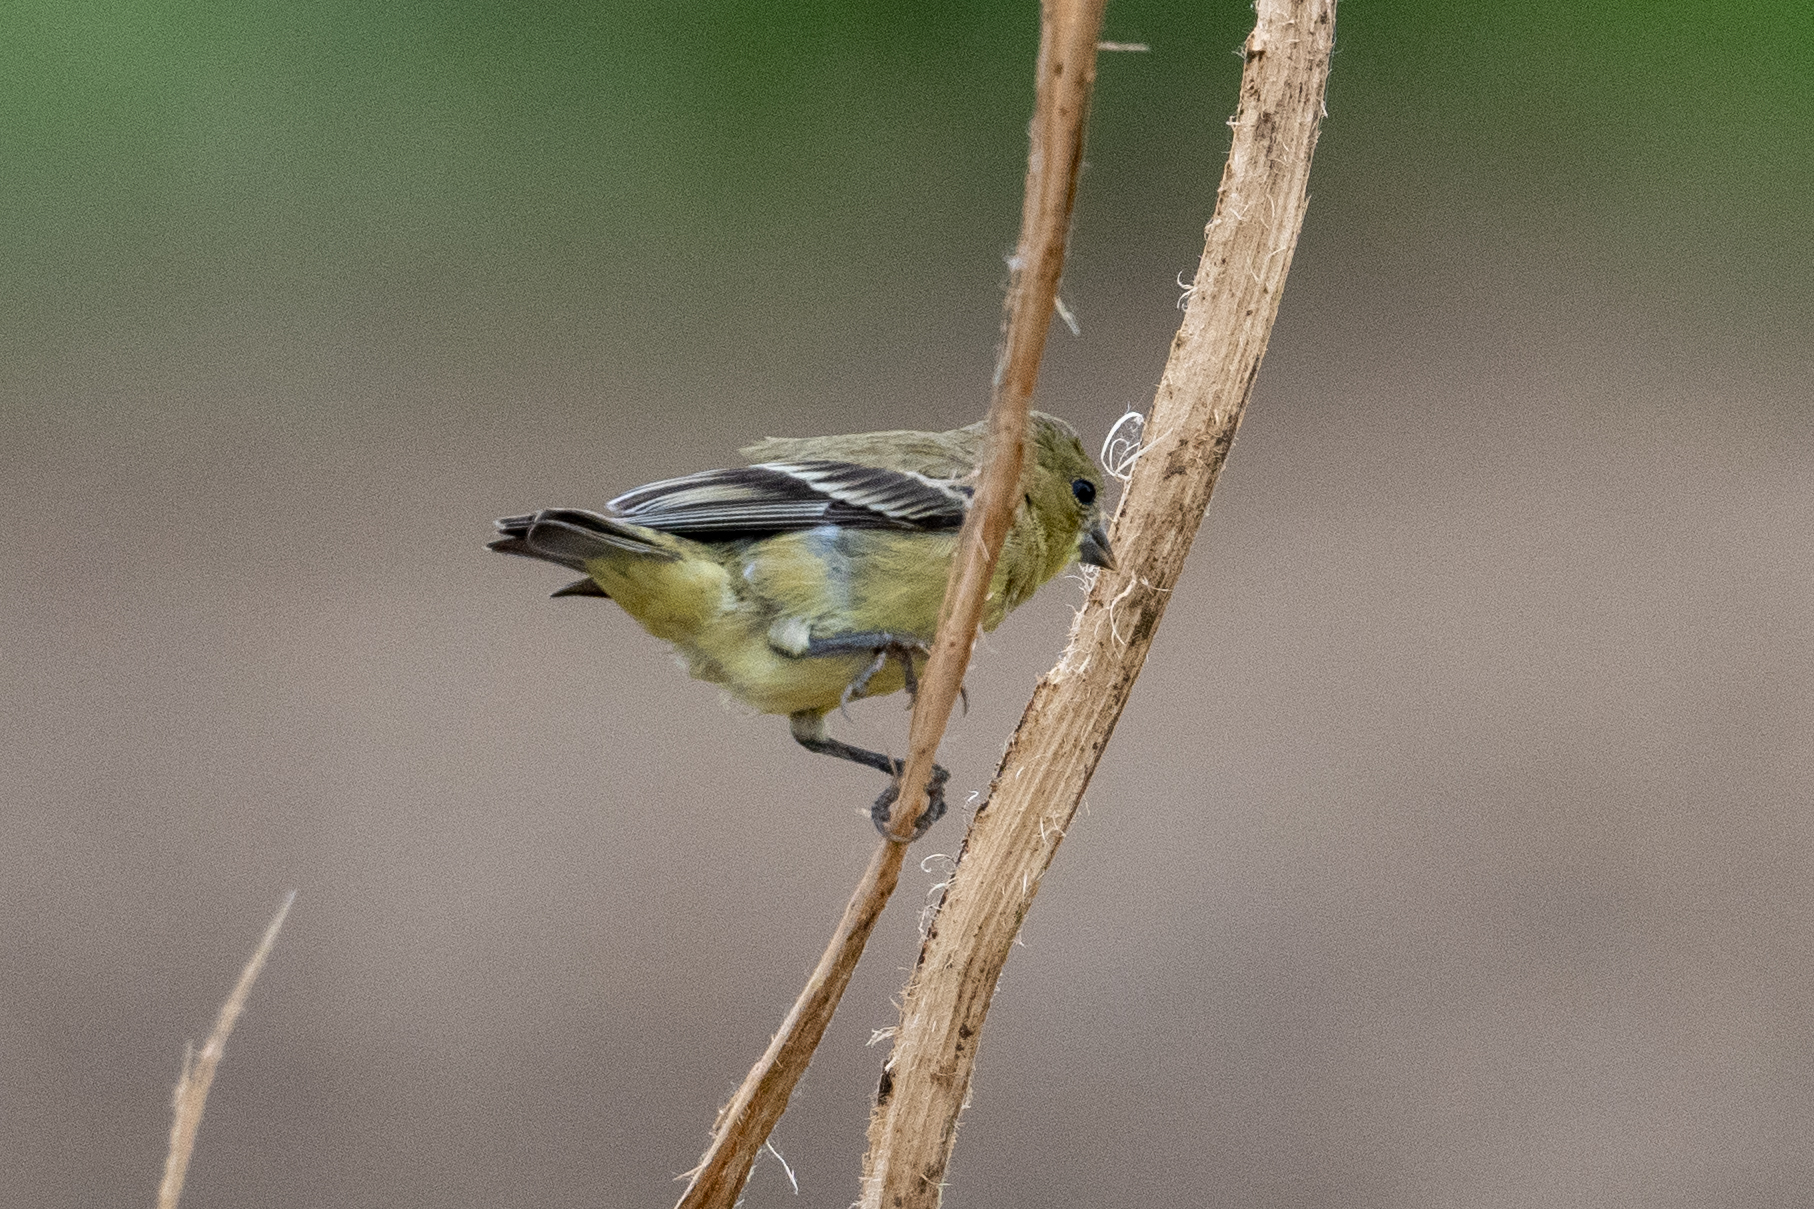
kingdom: Animalia
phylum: Chordata
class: Aves
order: Passeriformes
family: Fringillidae
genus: Spinus
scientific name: Spinus psaltria
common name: Lesser goldfinch
